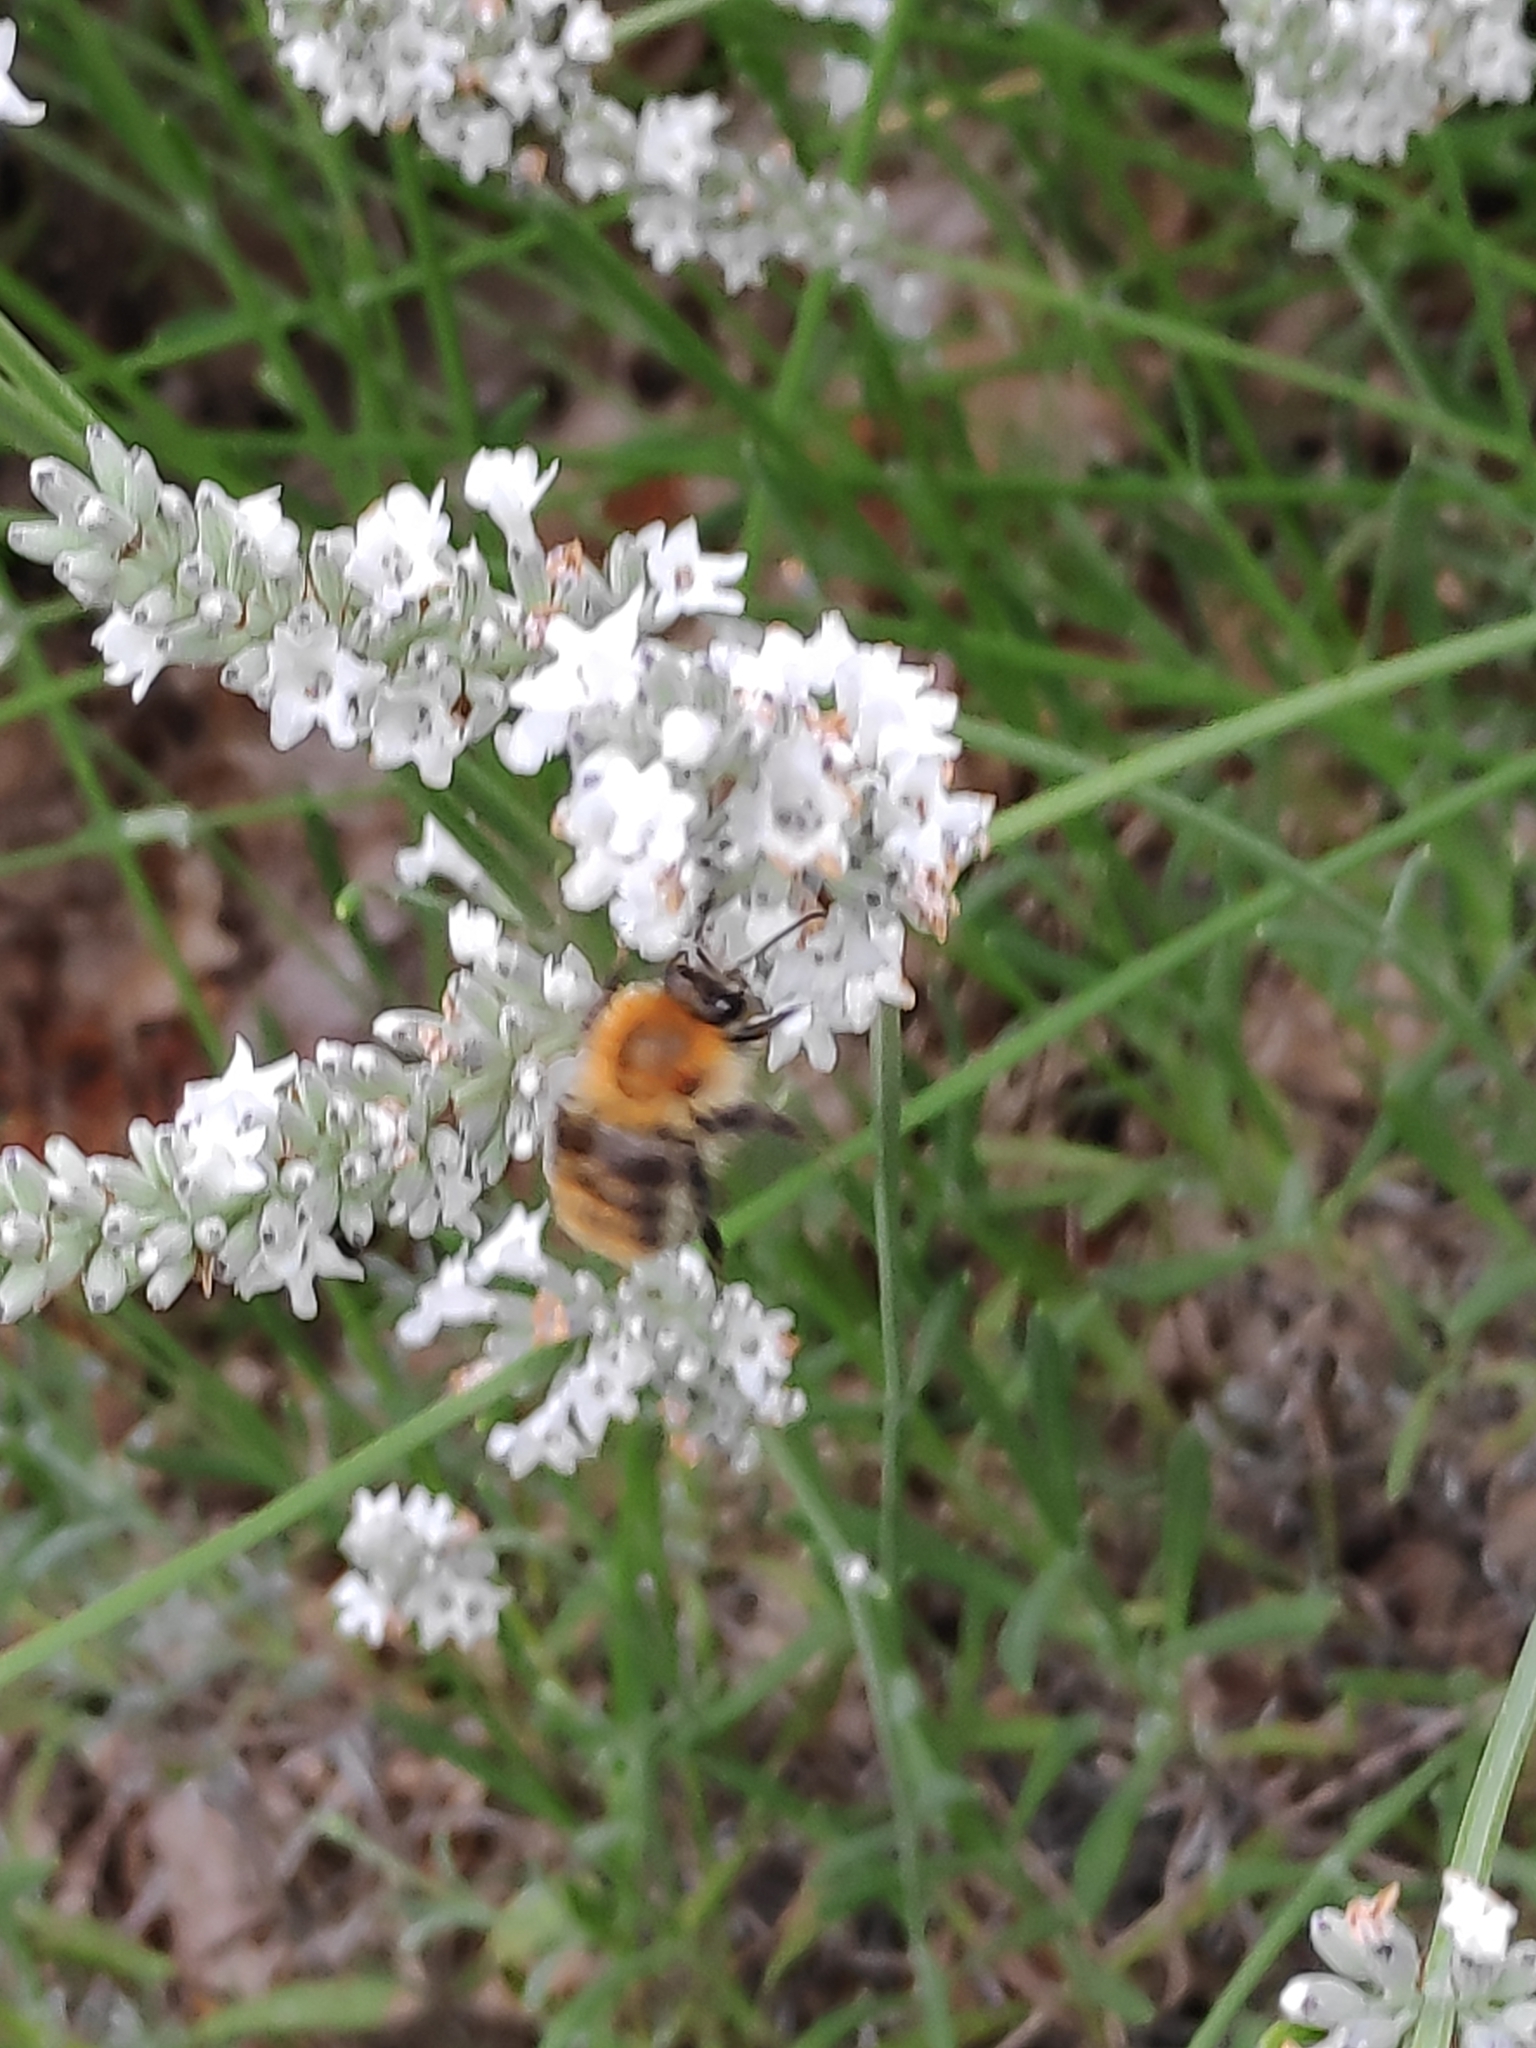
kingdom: Animalia
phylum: Arthropoda
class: Insecta
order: Hymenoptera
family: Apidae
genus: Bombus
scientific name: Bombus pascuorum
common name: Common carder bee
